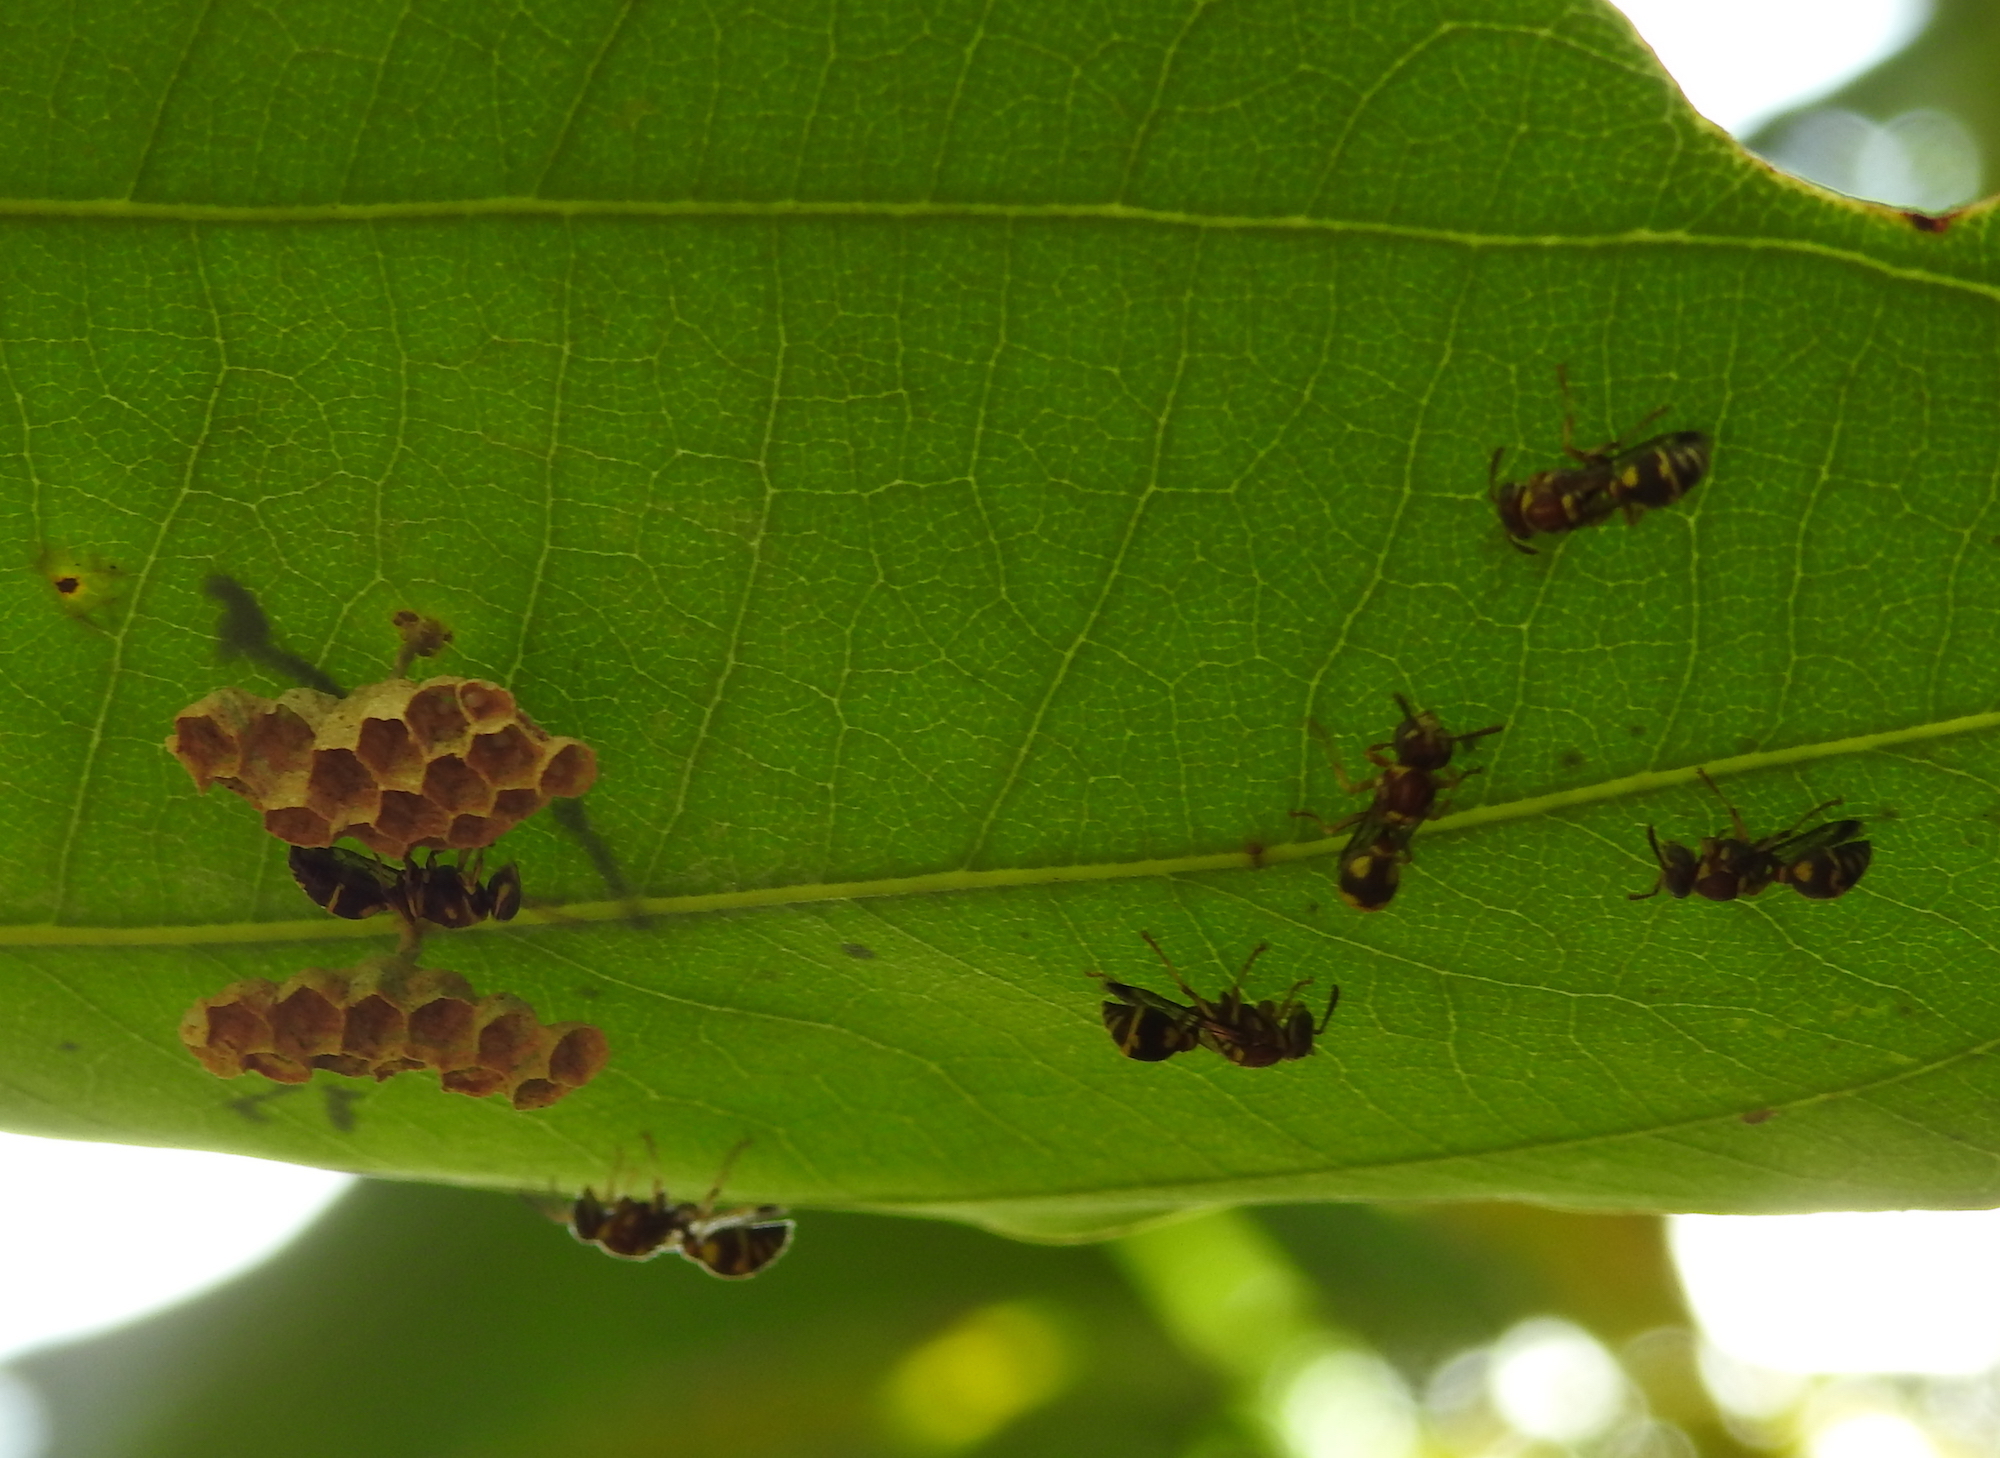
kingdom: Animalia
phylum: Arthropoda
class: Insecta
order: Hymenoptera
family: Vespidae
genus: Ropalidia
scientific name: Ropalidia cyathiformis
